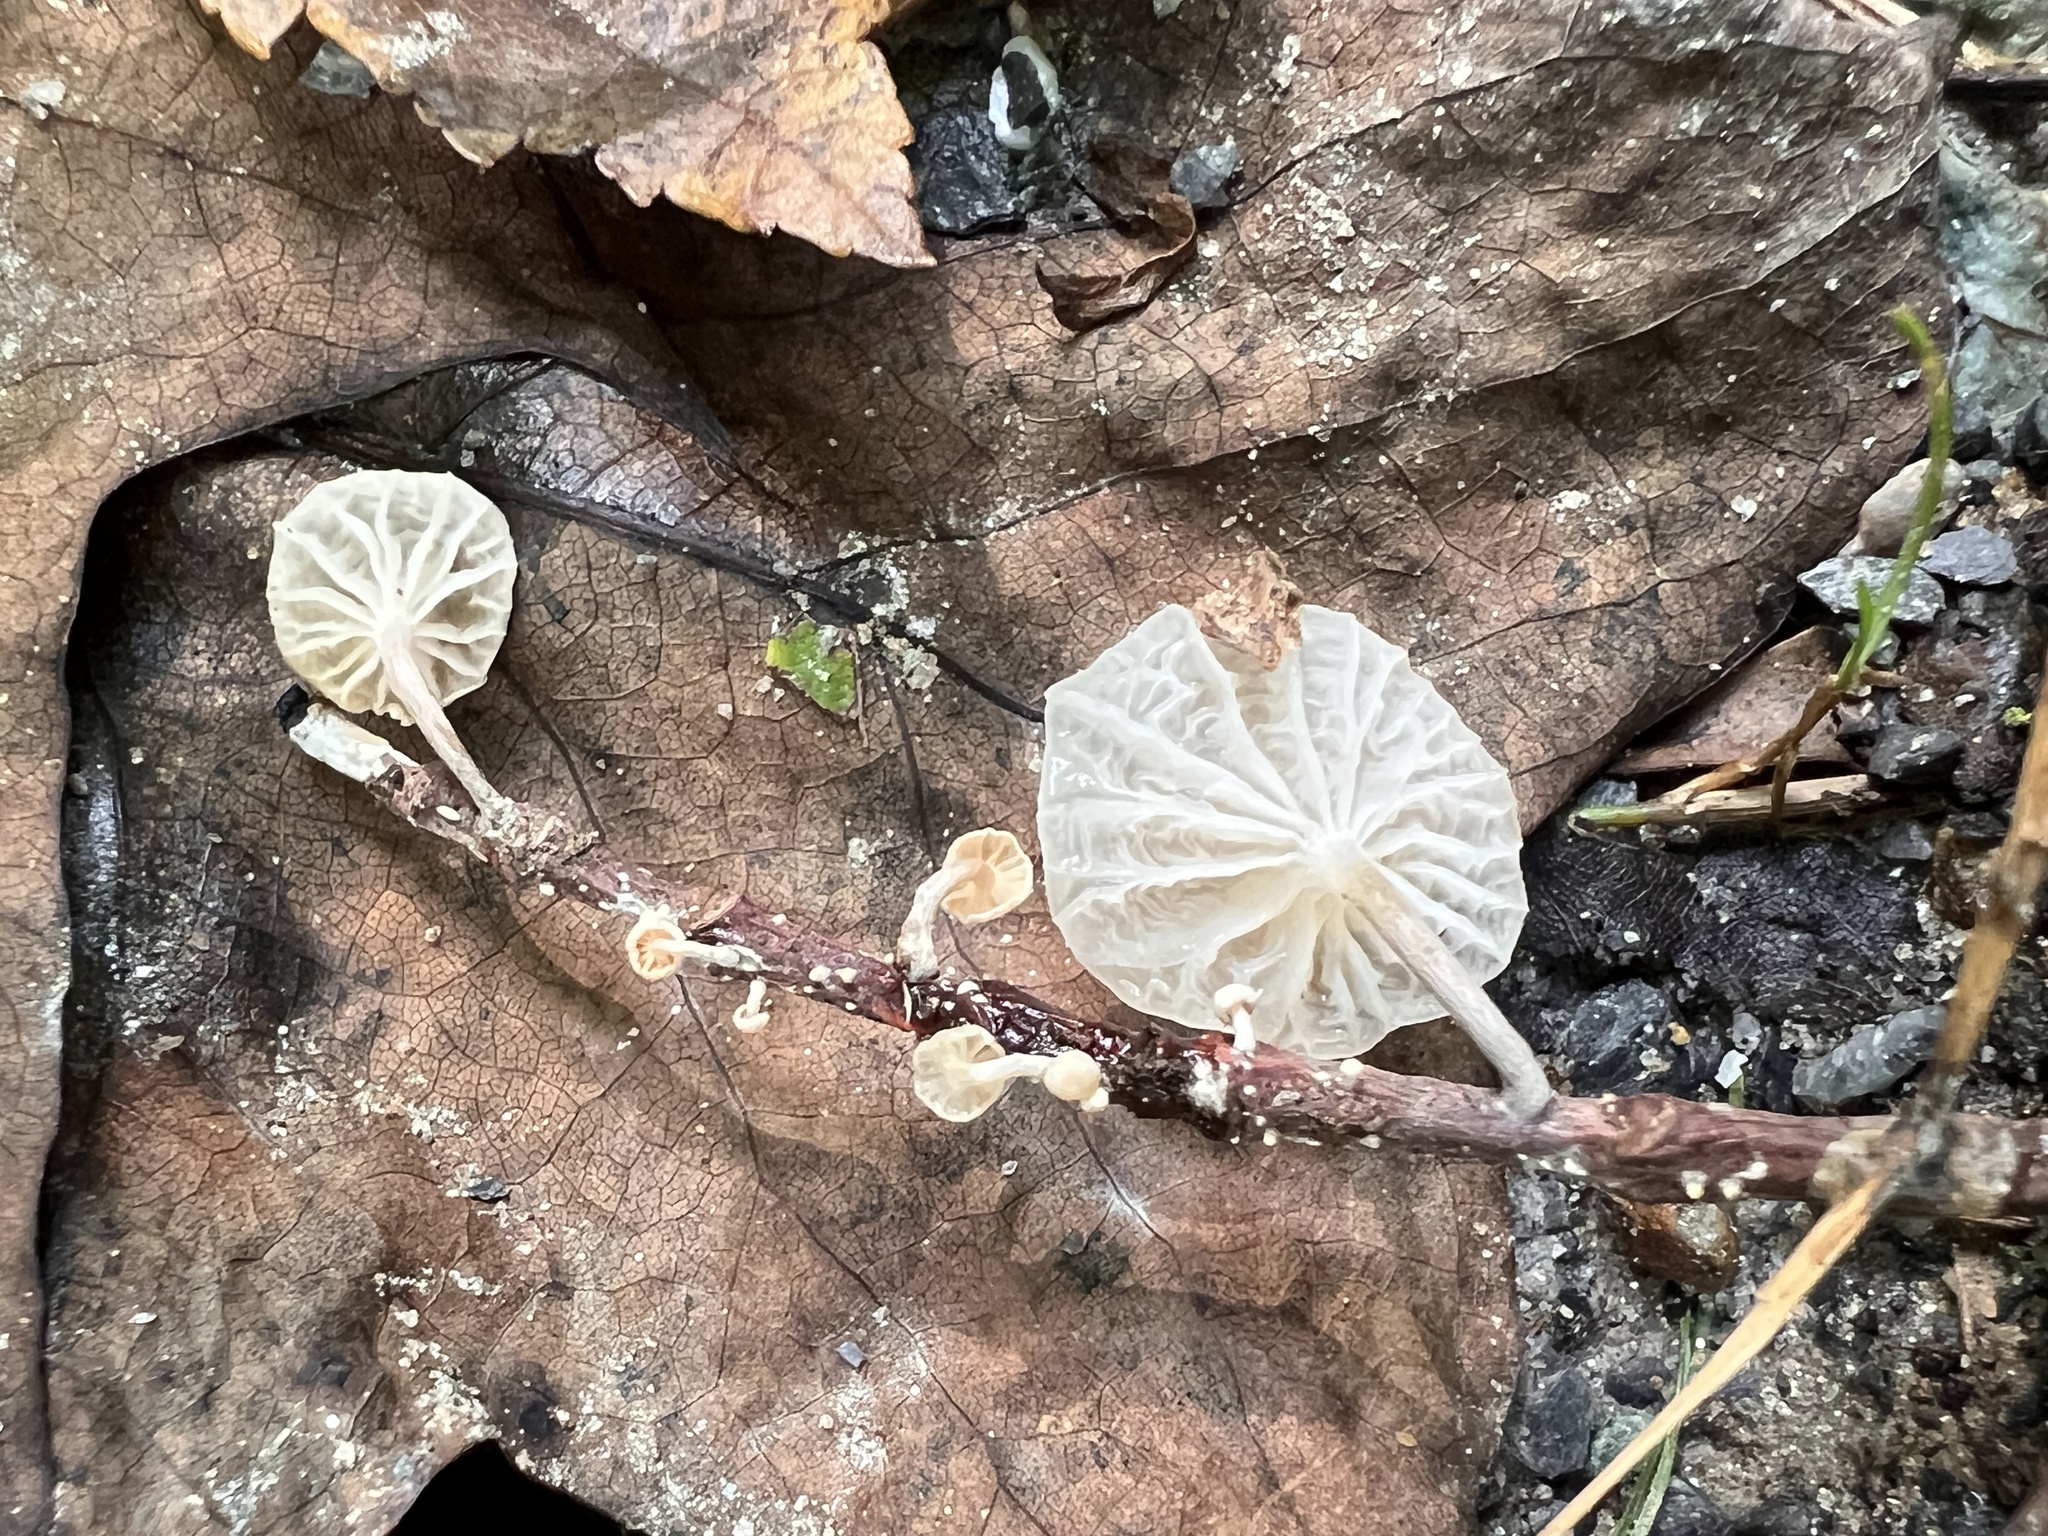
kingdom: Fungi
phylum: Basidiomycota
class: Agaricomycetes
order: Agaricales
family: Omphalotaceae
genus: Marasmiellus
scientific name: Marasmiellus candidus
